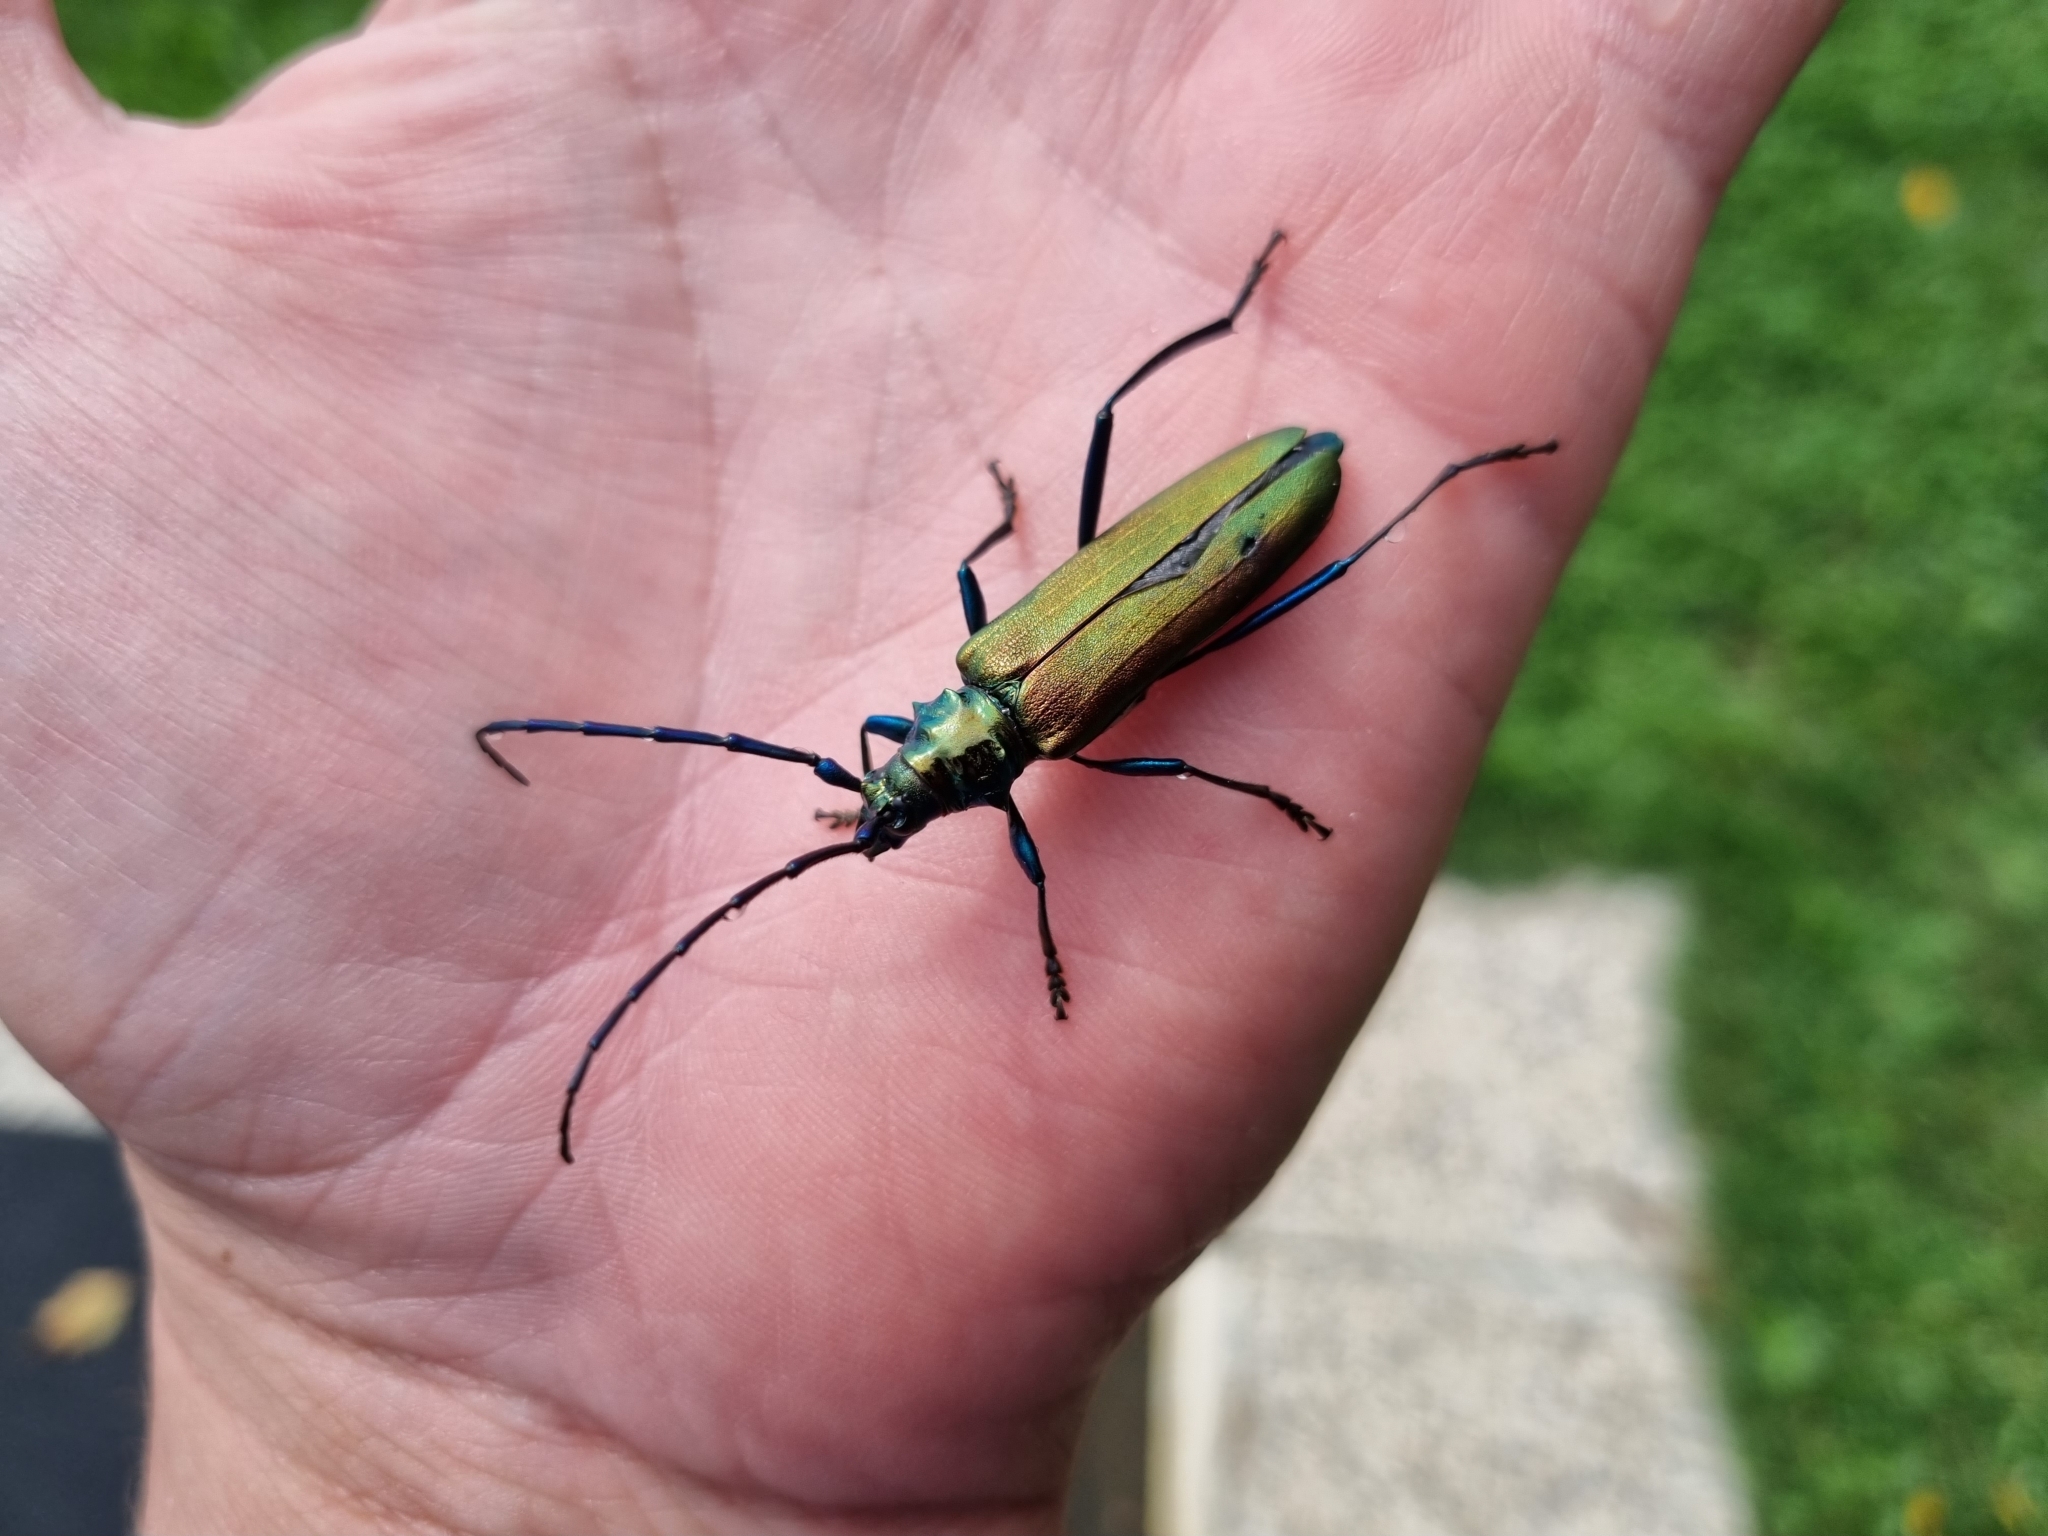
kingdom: Animalia
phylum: Arthropoda
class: Insecta
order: Coleoptera
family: Cerambycidae
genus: Aromia
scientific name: Aromia moschata
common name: Musk beetle
